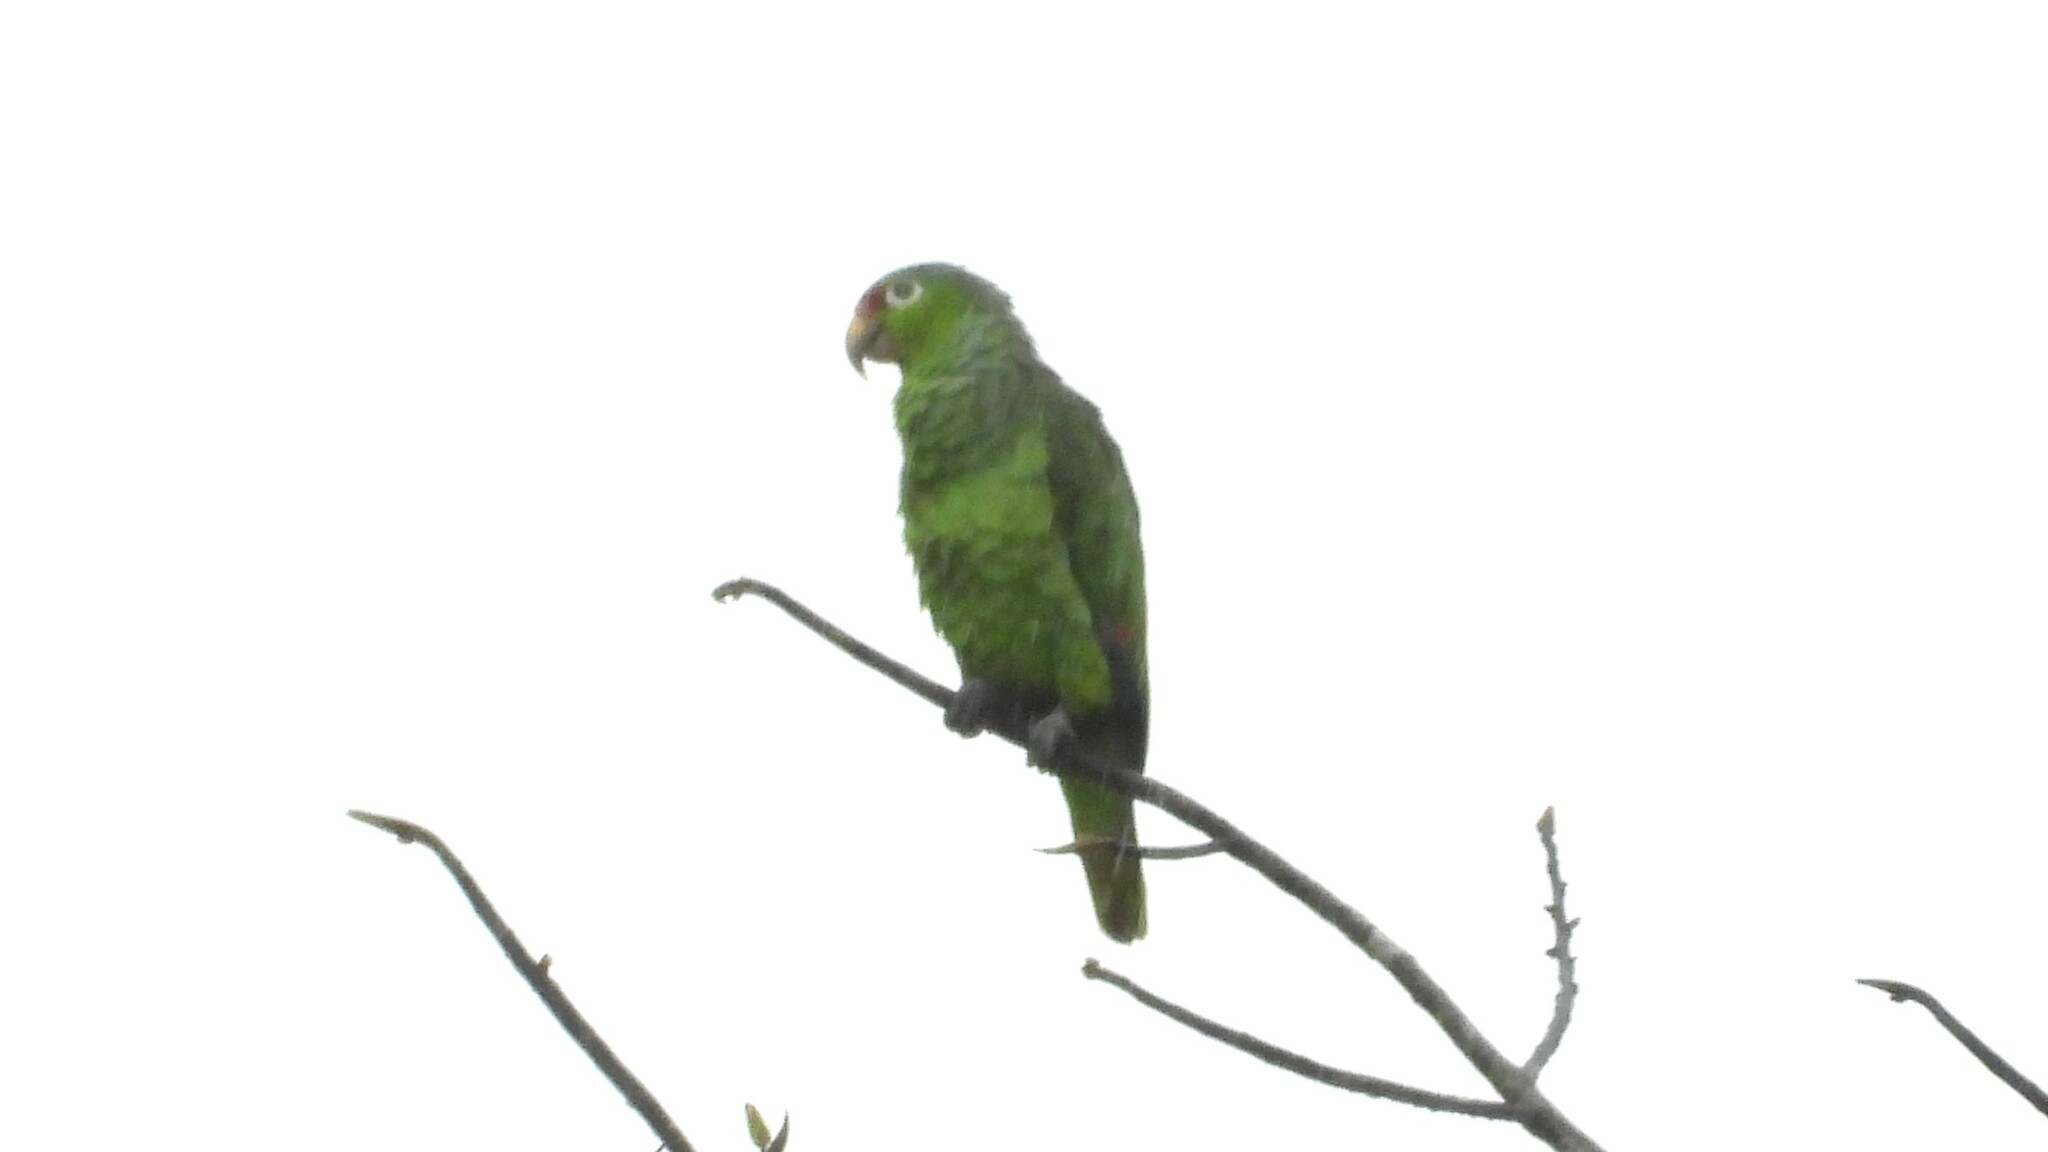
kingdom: Animalia
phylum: Chordata
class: Aves
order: Psittaciformes
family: Psittacidae
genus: Amazona
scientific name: Amazona autumnalis
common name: Red-lored amazon
